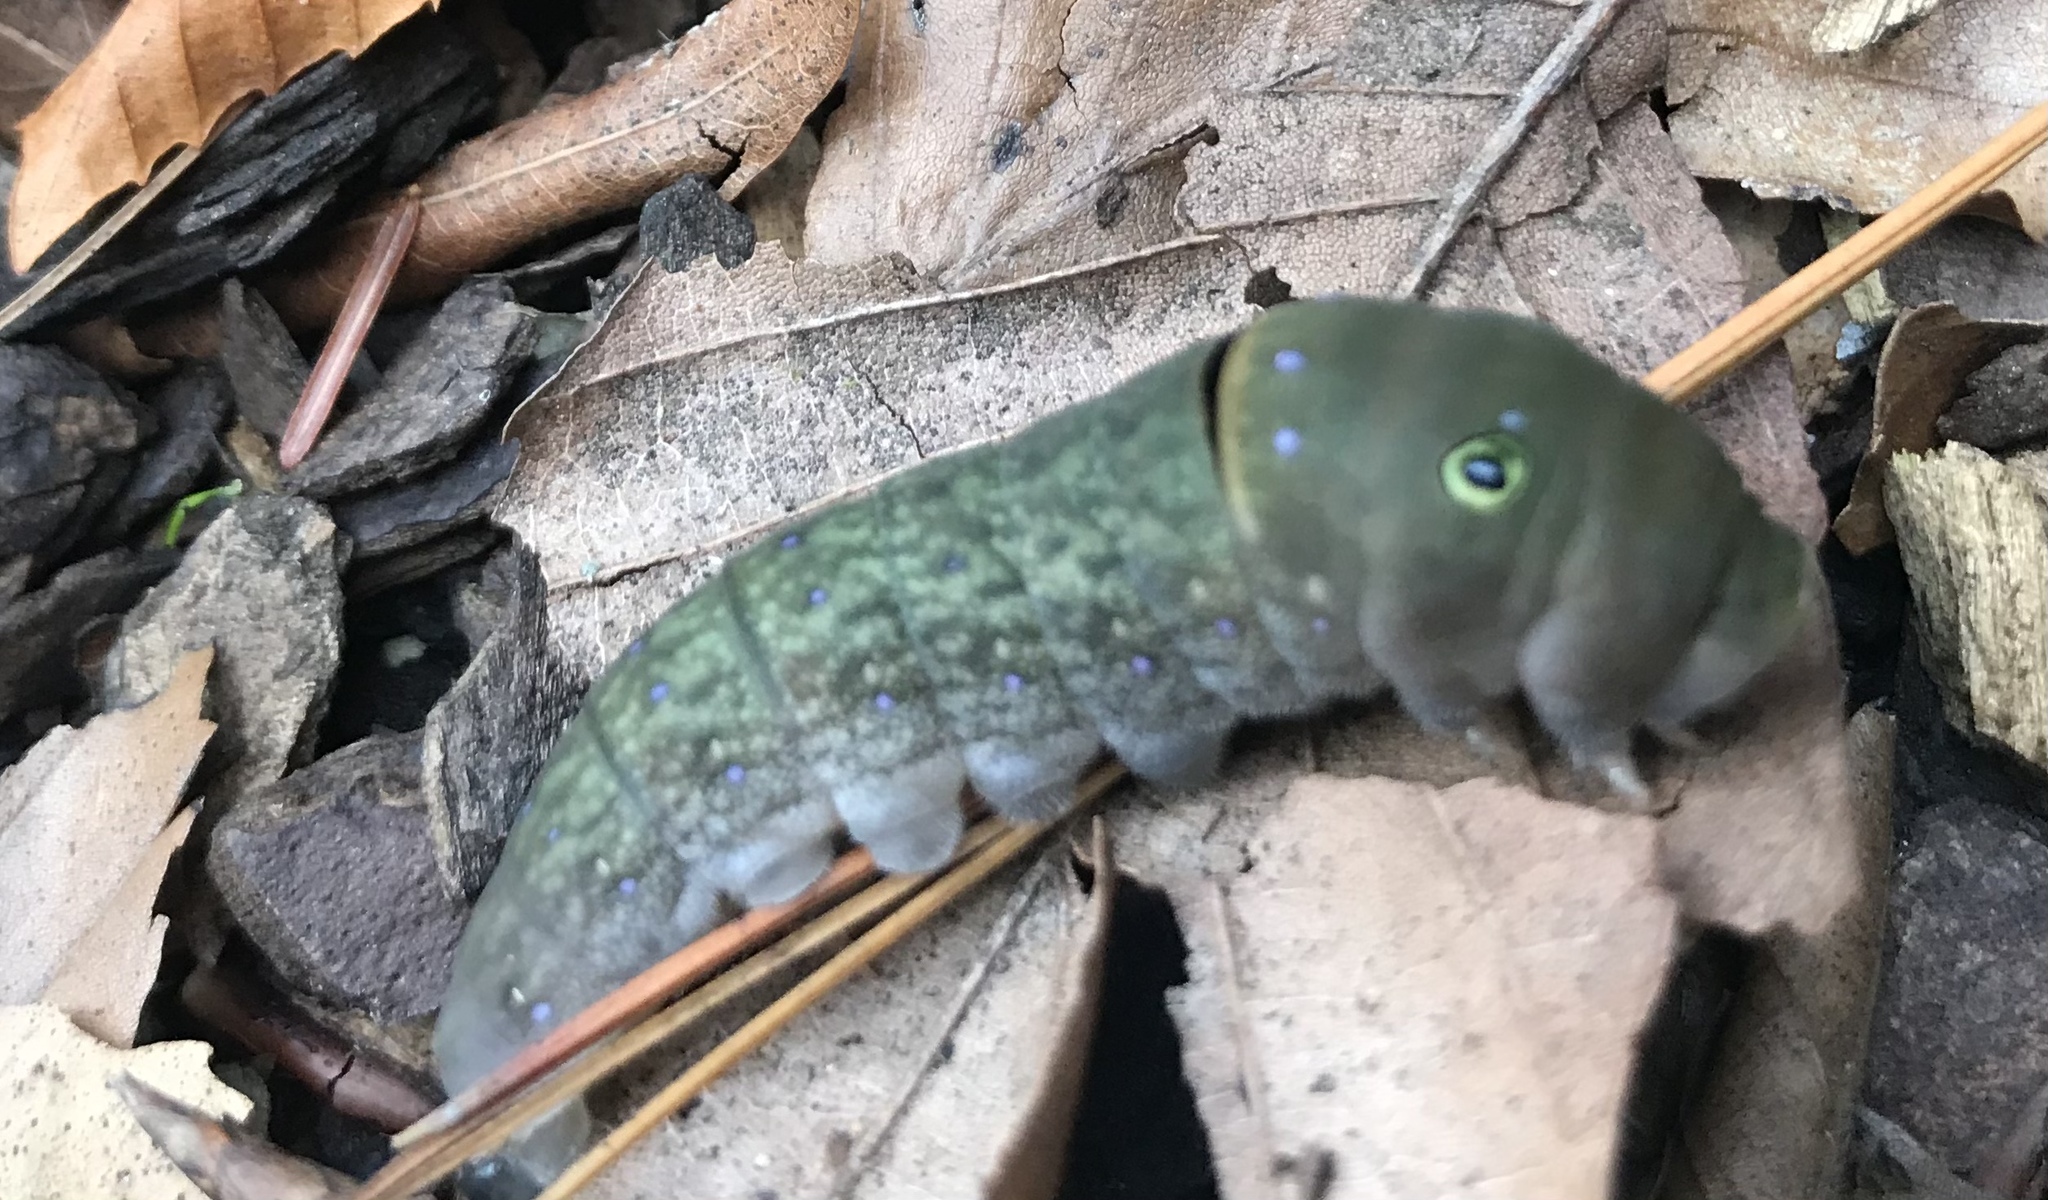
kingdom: Animalia
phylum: Arthropoda
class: Insecta
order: Lepidoptera
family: Papilionidae
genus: Papilio
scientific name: Papilio glaucus
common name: Tiger swallowtail
